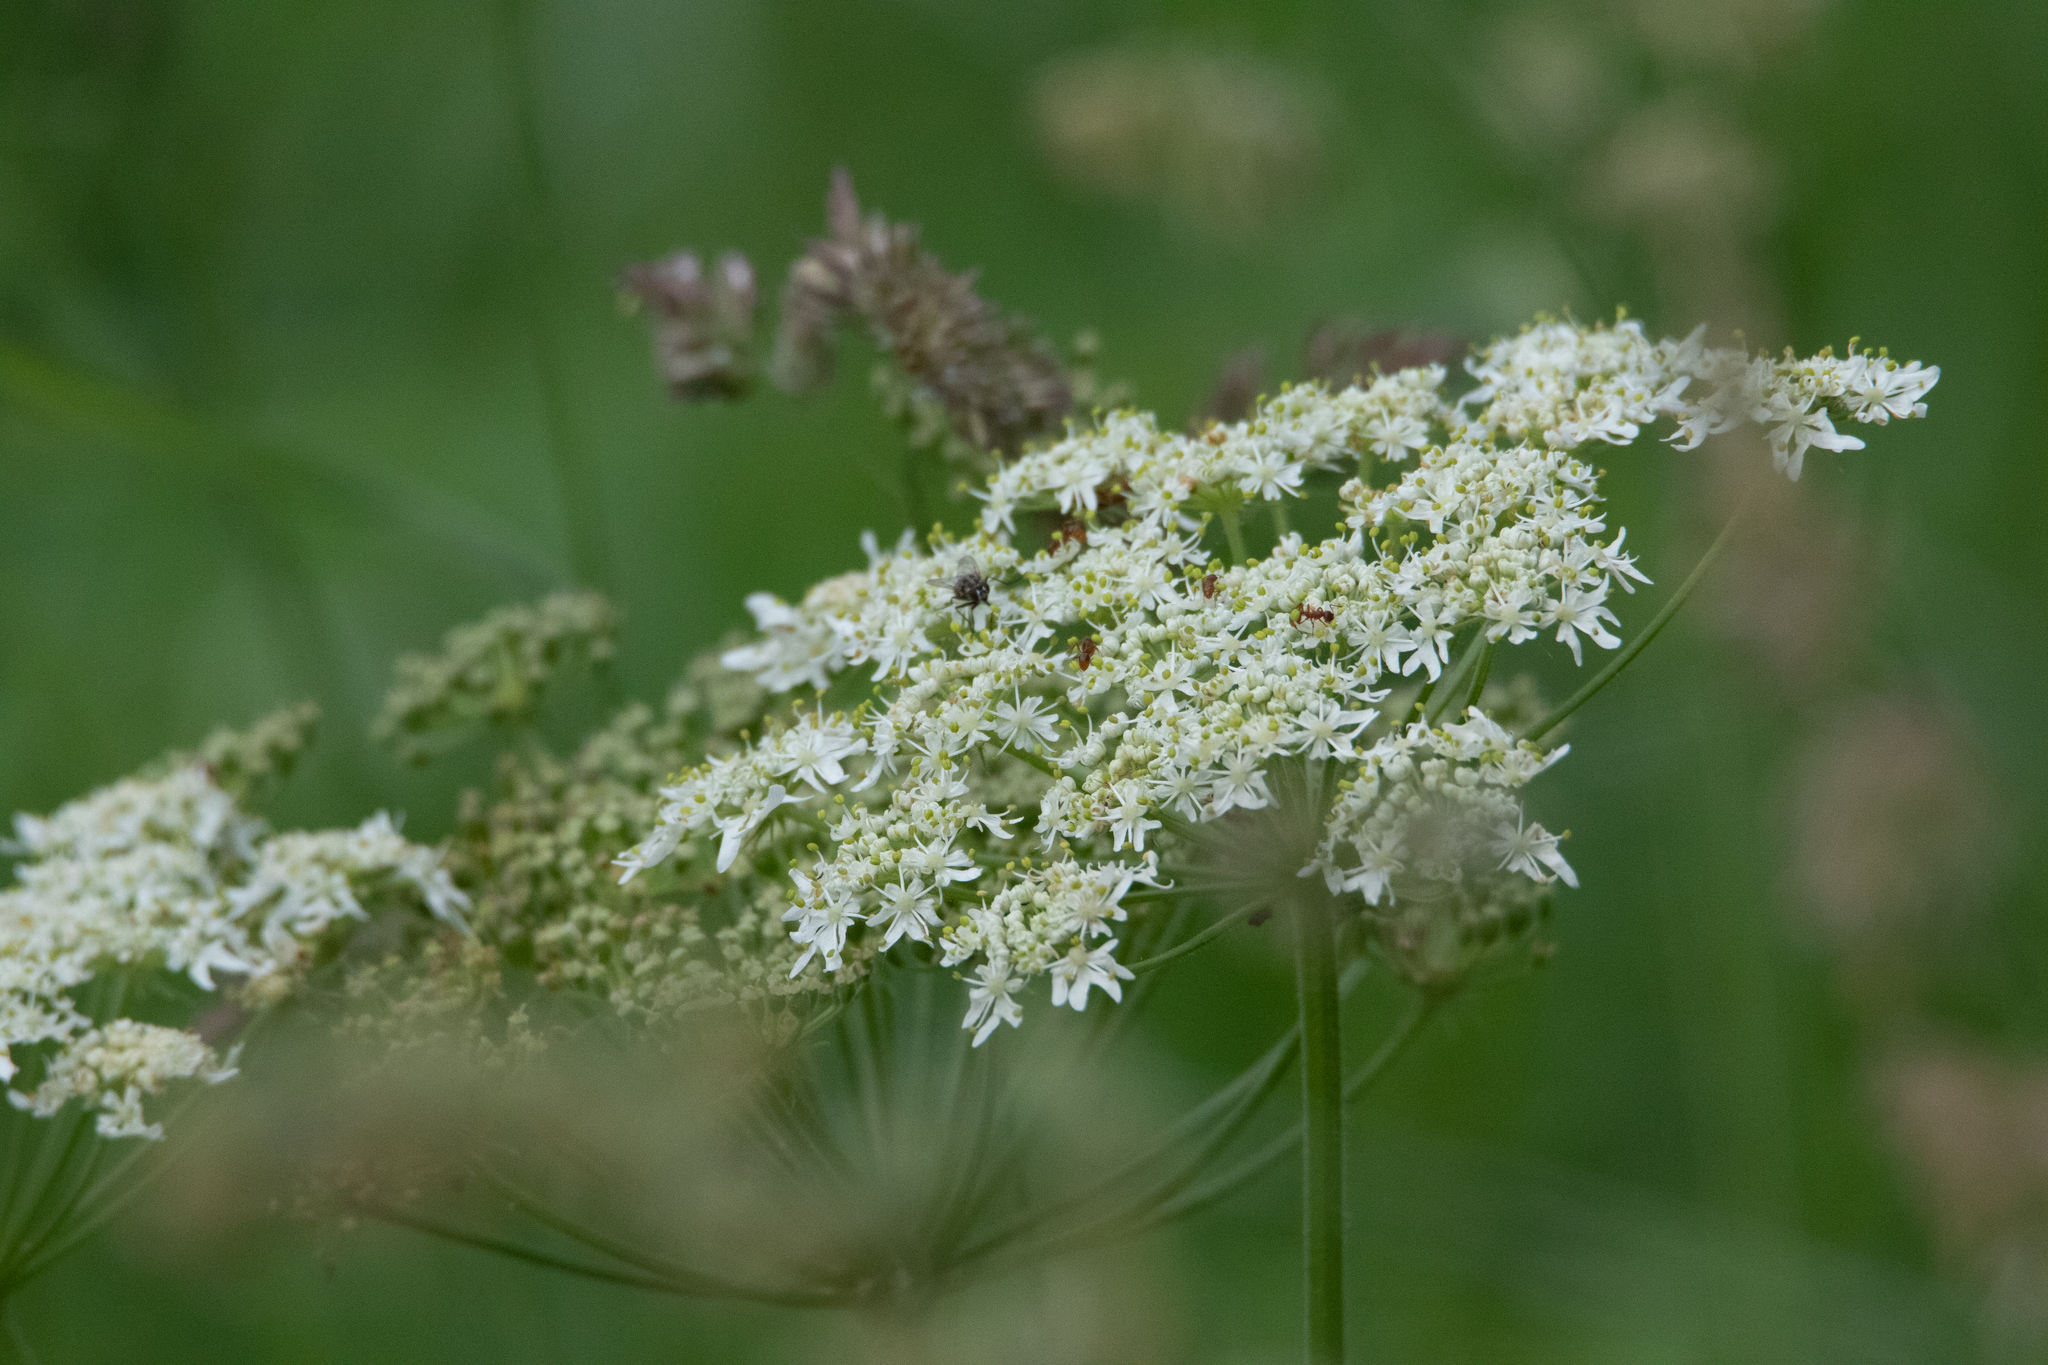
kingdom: Plantae
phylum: Tracheophyta
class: Magnoliopsida
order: Apiales
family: Apiaceae
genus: Heracleum
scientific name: Heracleum dissectum
